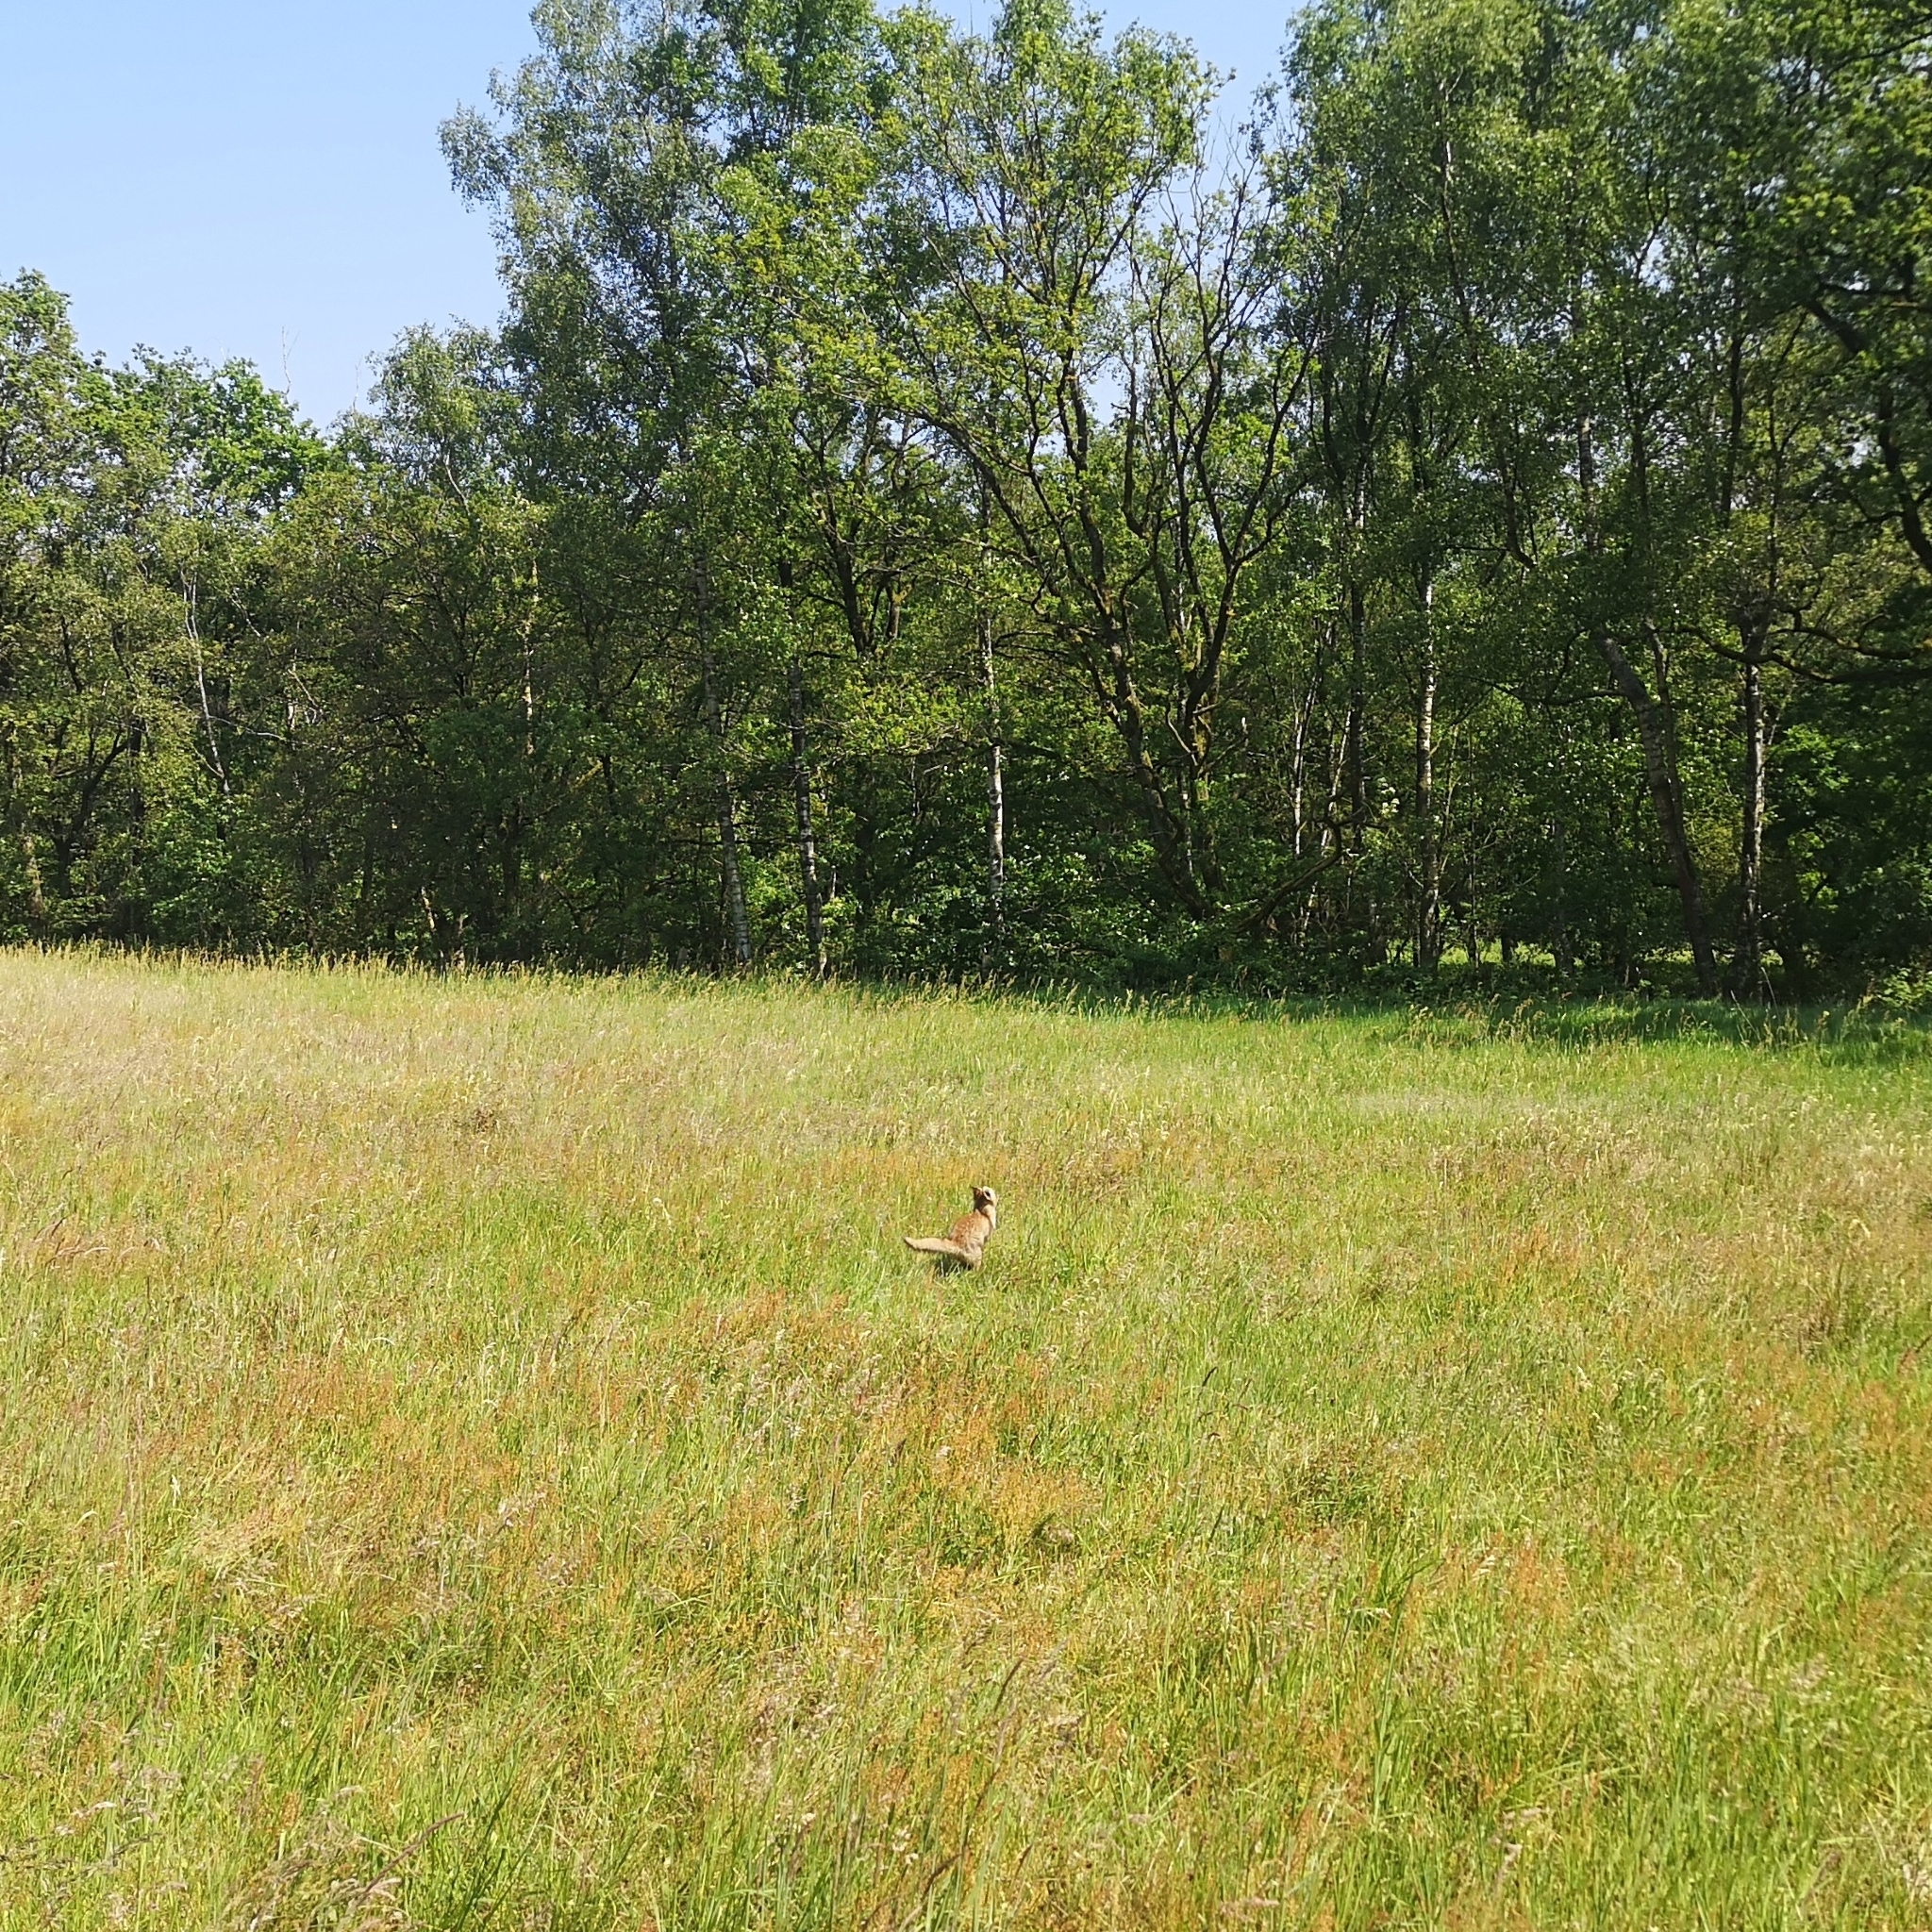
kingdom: Animalia
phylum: Chordata
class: Mammalia
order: Carnivora
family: Canidae
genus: Vulpes
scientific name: Vulpes vulpes
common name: Red fox
